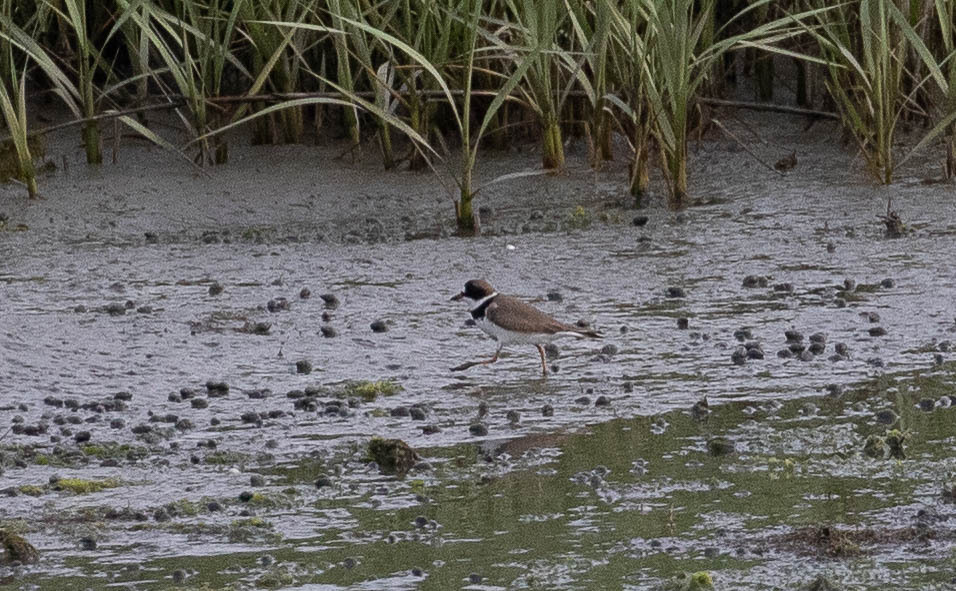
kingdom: Animalia
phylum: Chordata
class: Aves
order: Charadriiformes
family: Charadriidae
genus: Charadrius
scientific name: Charadrius semipalmatus
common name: Semipalmated plover
